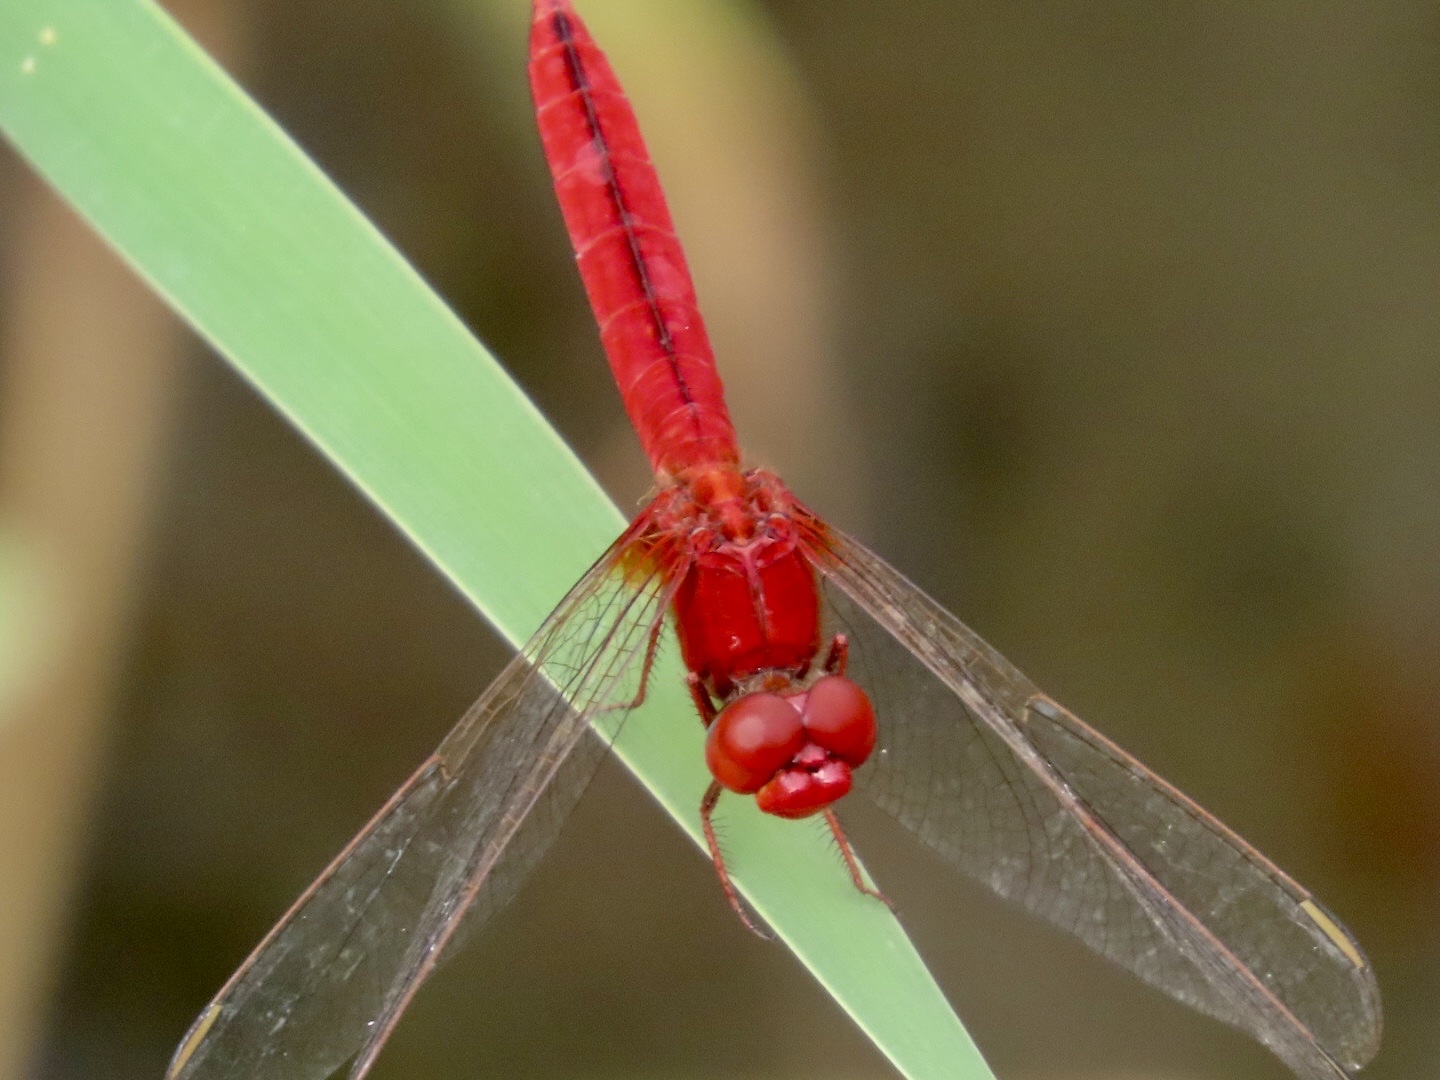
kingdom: Animalia
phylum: Arthropoda
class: Insecta
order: Odonata
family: Libellulidae
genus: Crocothemis
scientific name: Crocothemis servilia
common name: Scarlet skimmer
